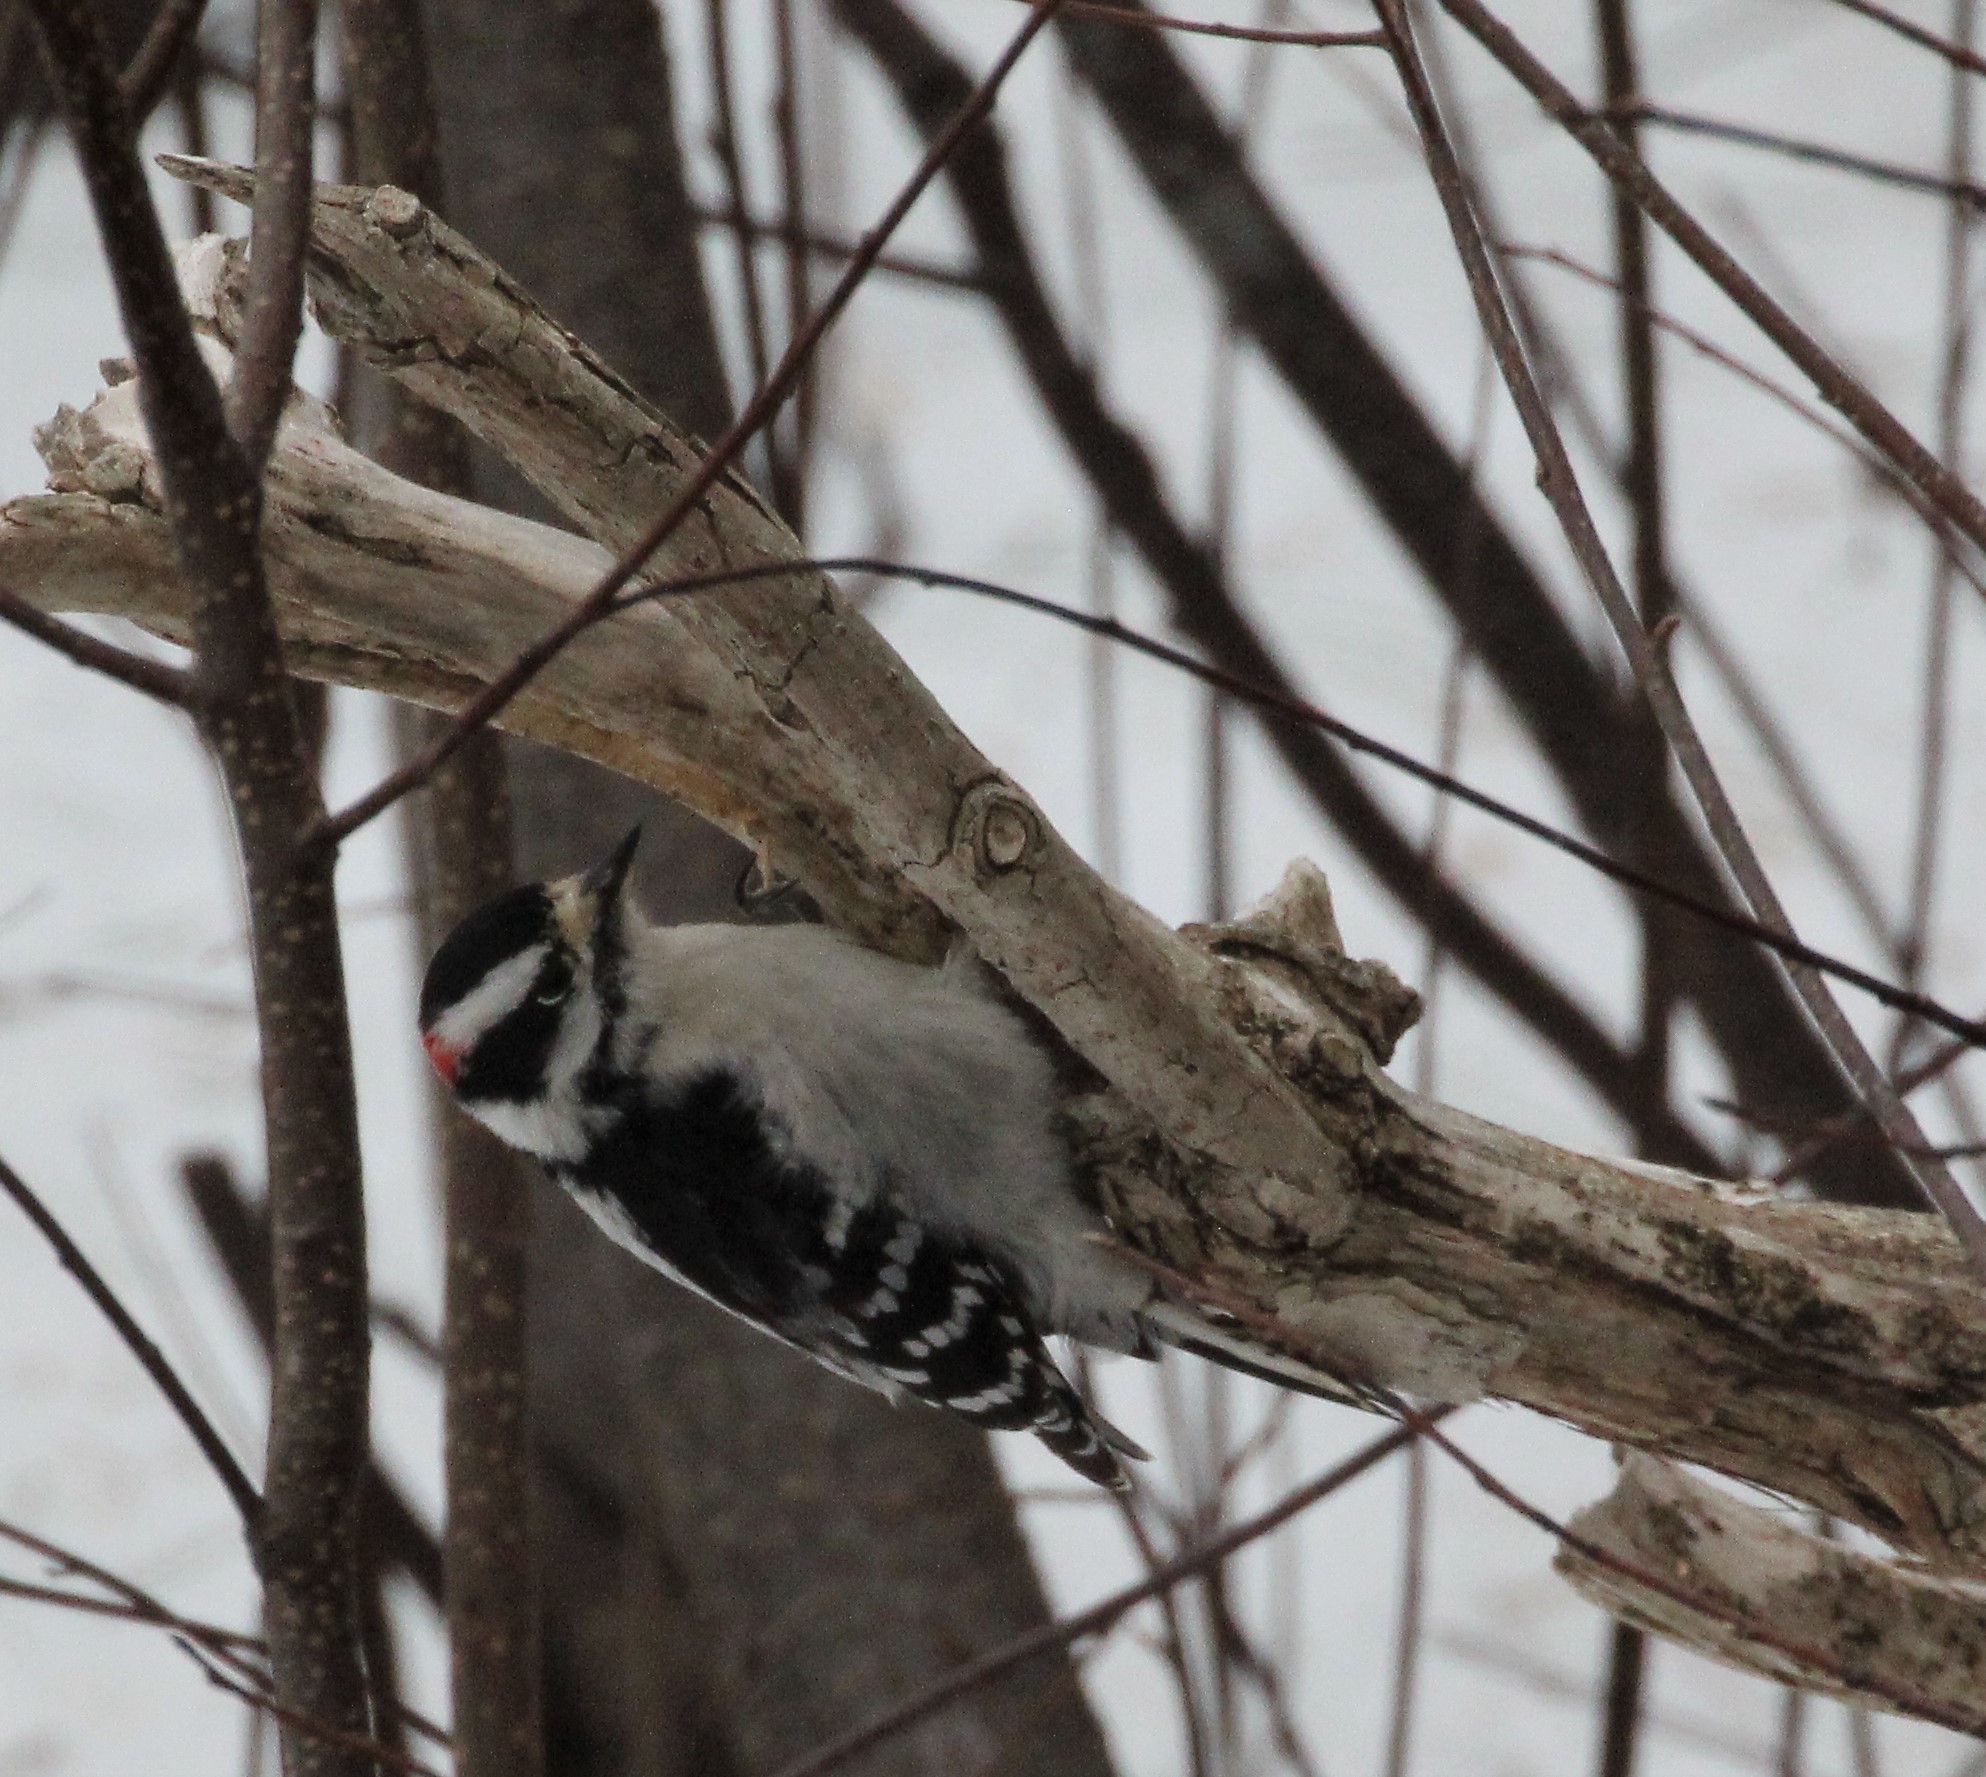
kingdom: Animalia
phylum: Chordata
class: Aves
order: Piciformes
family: Picidae
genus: Dryobates
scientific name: Dryobates pubescens
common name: Downy woodpecker
